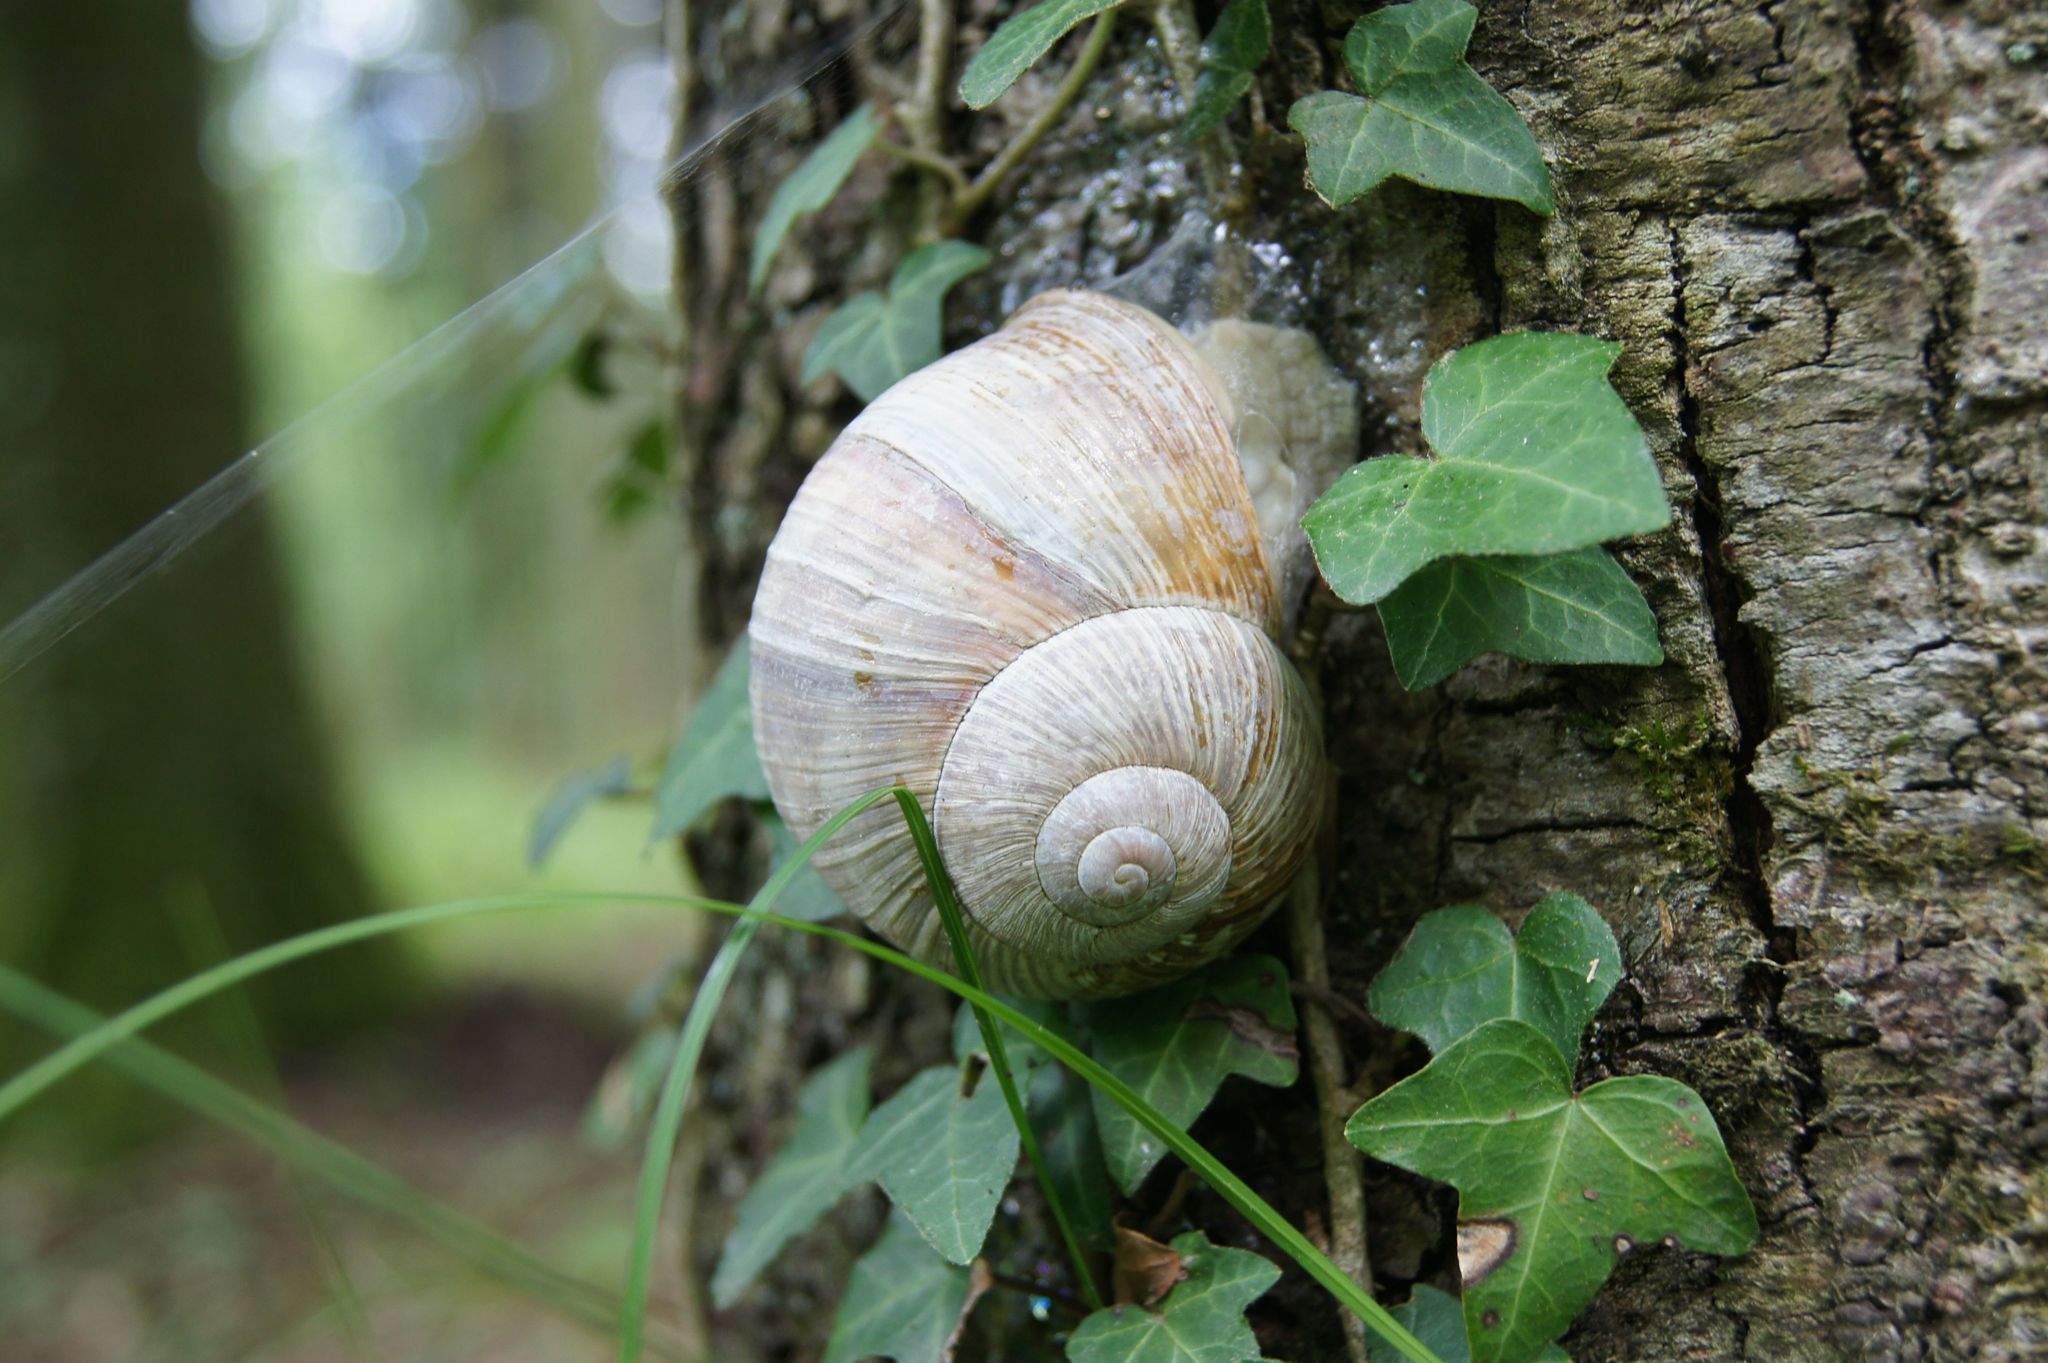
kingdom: Animalia
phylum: Mollusca
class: Gastropoda
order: Stylommatophora
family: Helicidae
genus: Helix
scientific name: Helix pomatia
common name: Roman snail
